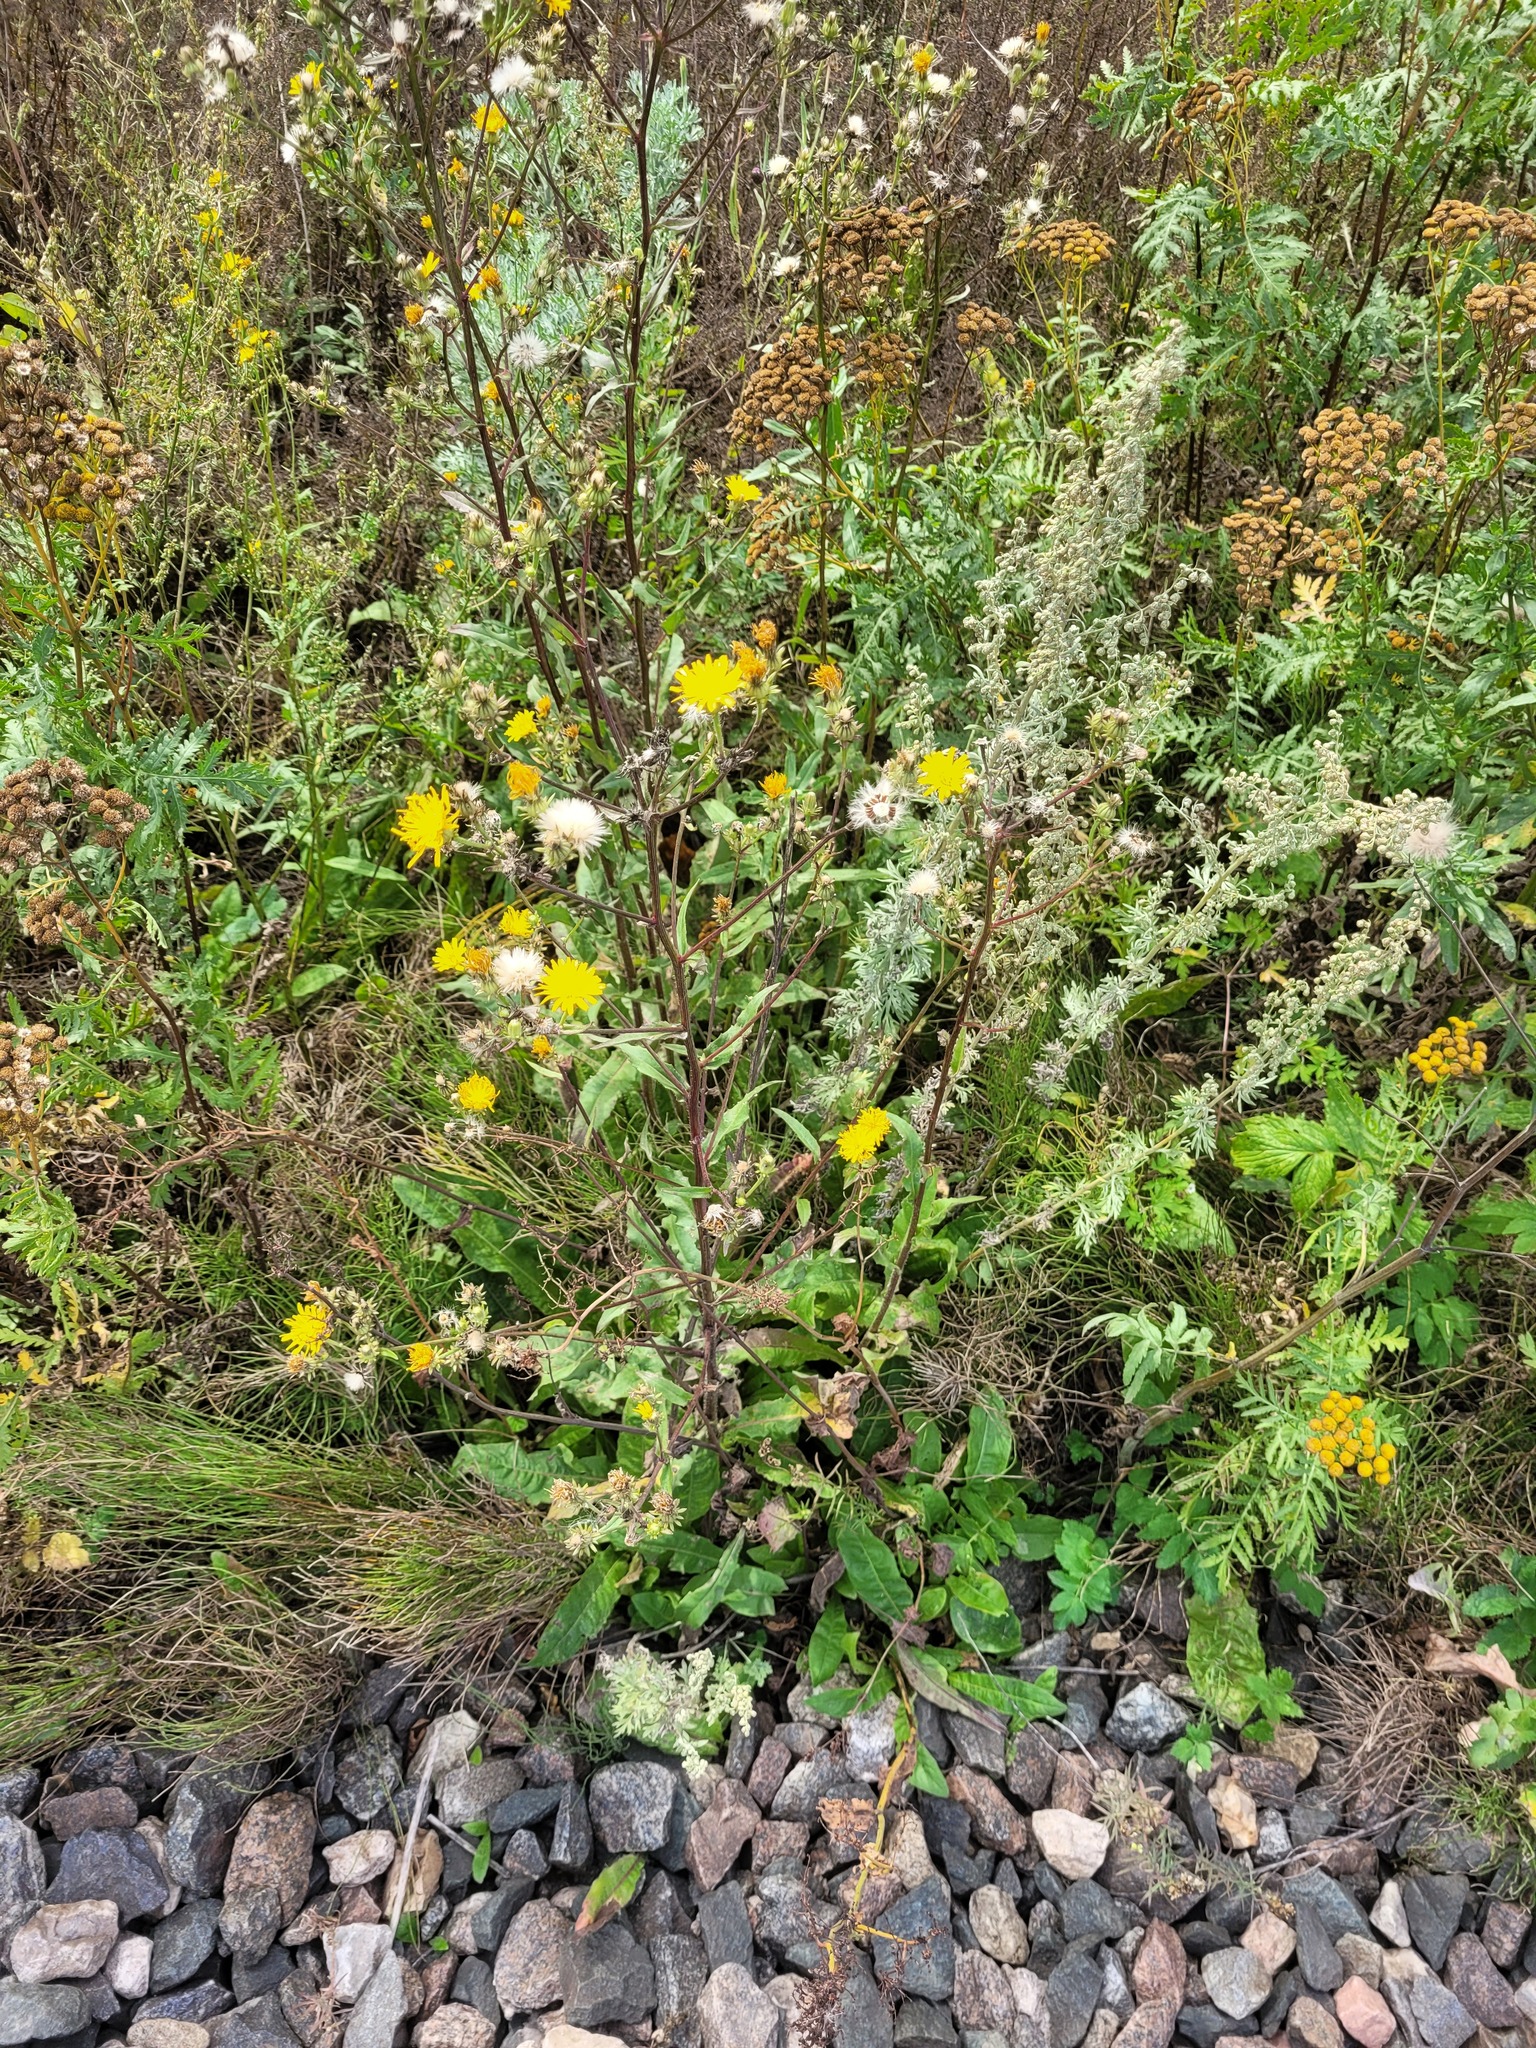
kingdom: Plantae
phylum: Tracheophyta
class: Magnoliopsida
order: Asterales
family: Asteraceae
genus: Picris
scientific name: Picris hieracioides
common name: Hawkweed oxtongue
